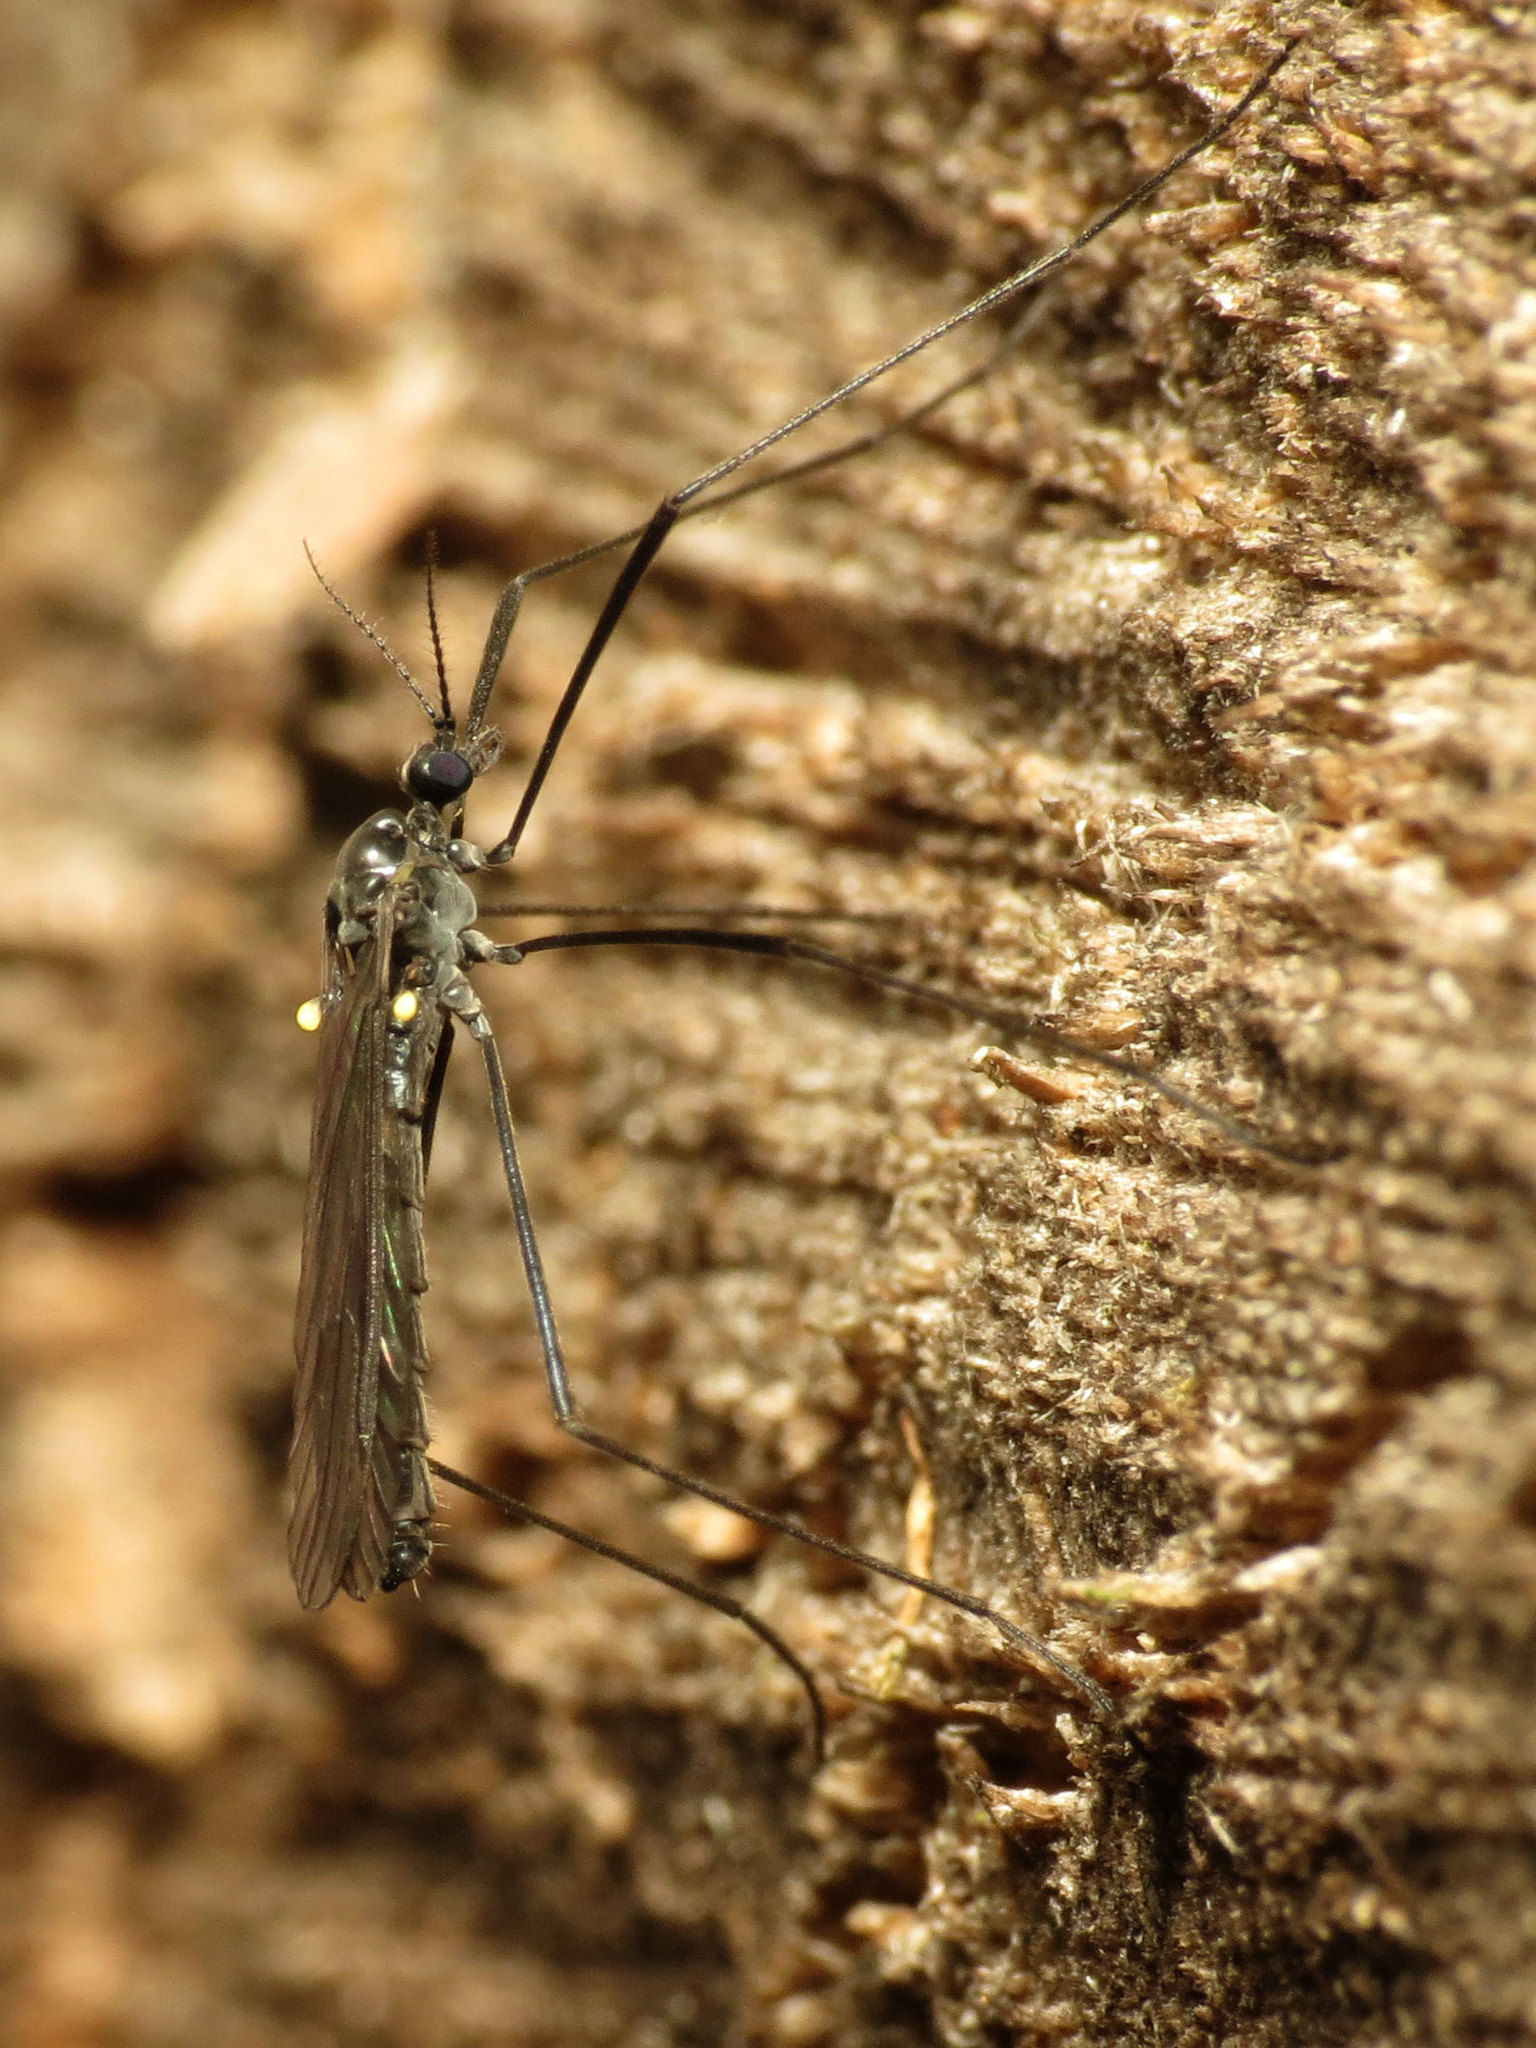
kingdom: Animalia
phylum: Arthropoda
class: Insecta
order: Diptera
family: Limoniidae
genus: Gnophomyia
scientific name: Gnophomyia tristissima
